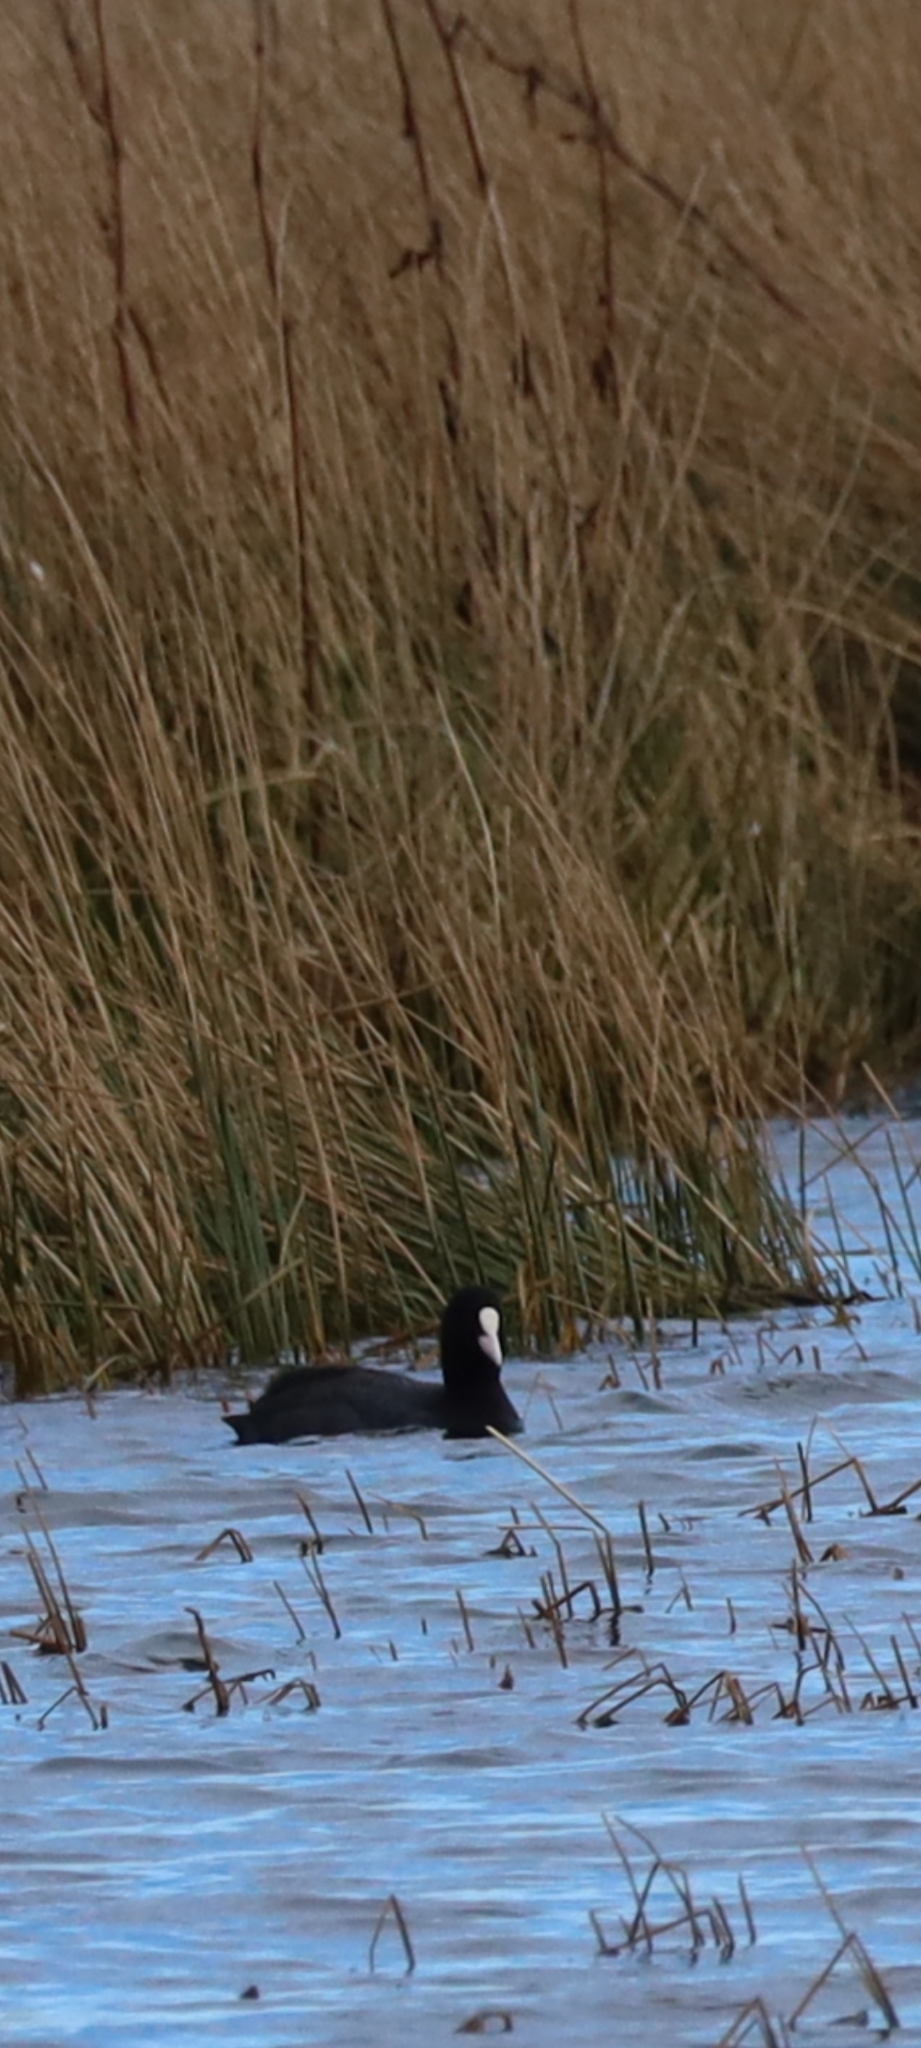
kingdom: Animalia
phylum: Chordata
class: Aves
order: Gruiformes
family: Rallidae
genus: Fulica
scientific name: Fulica atra
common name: Eurasian coot
